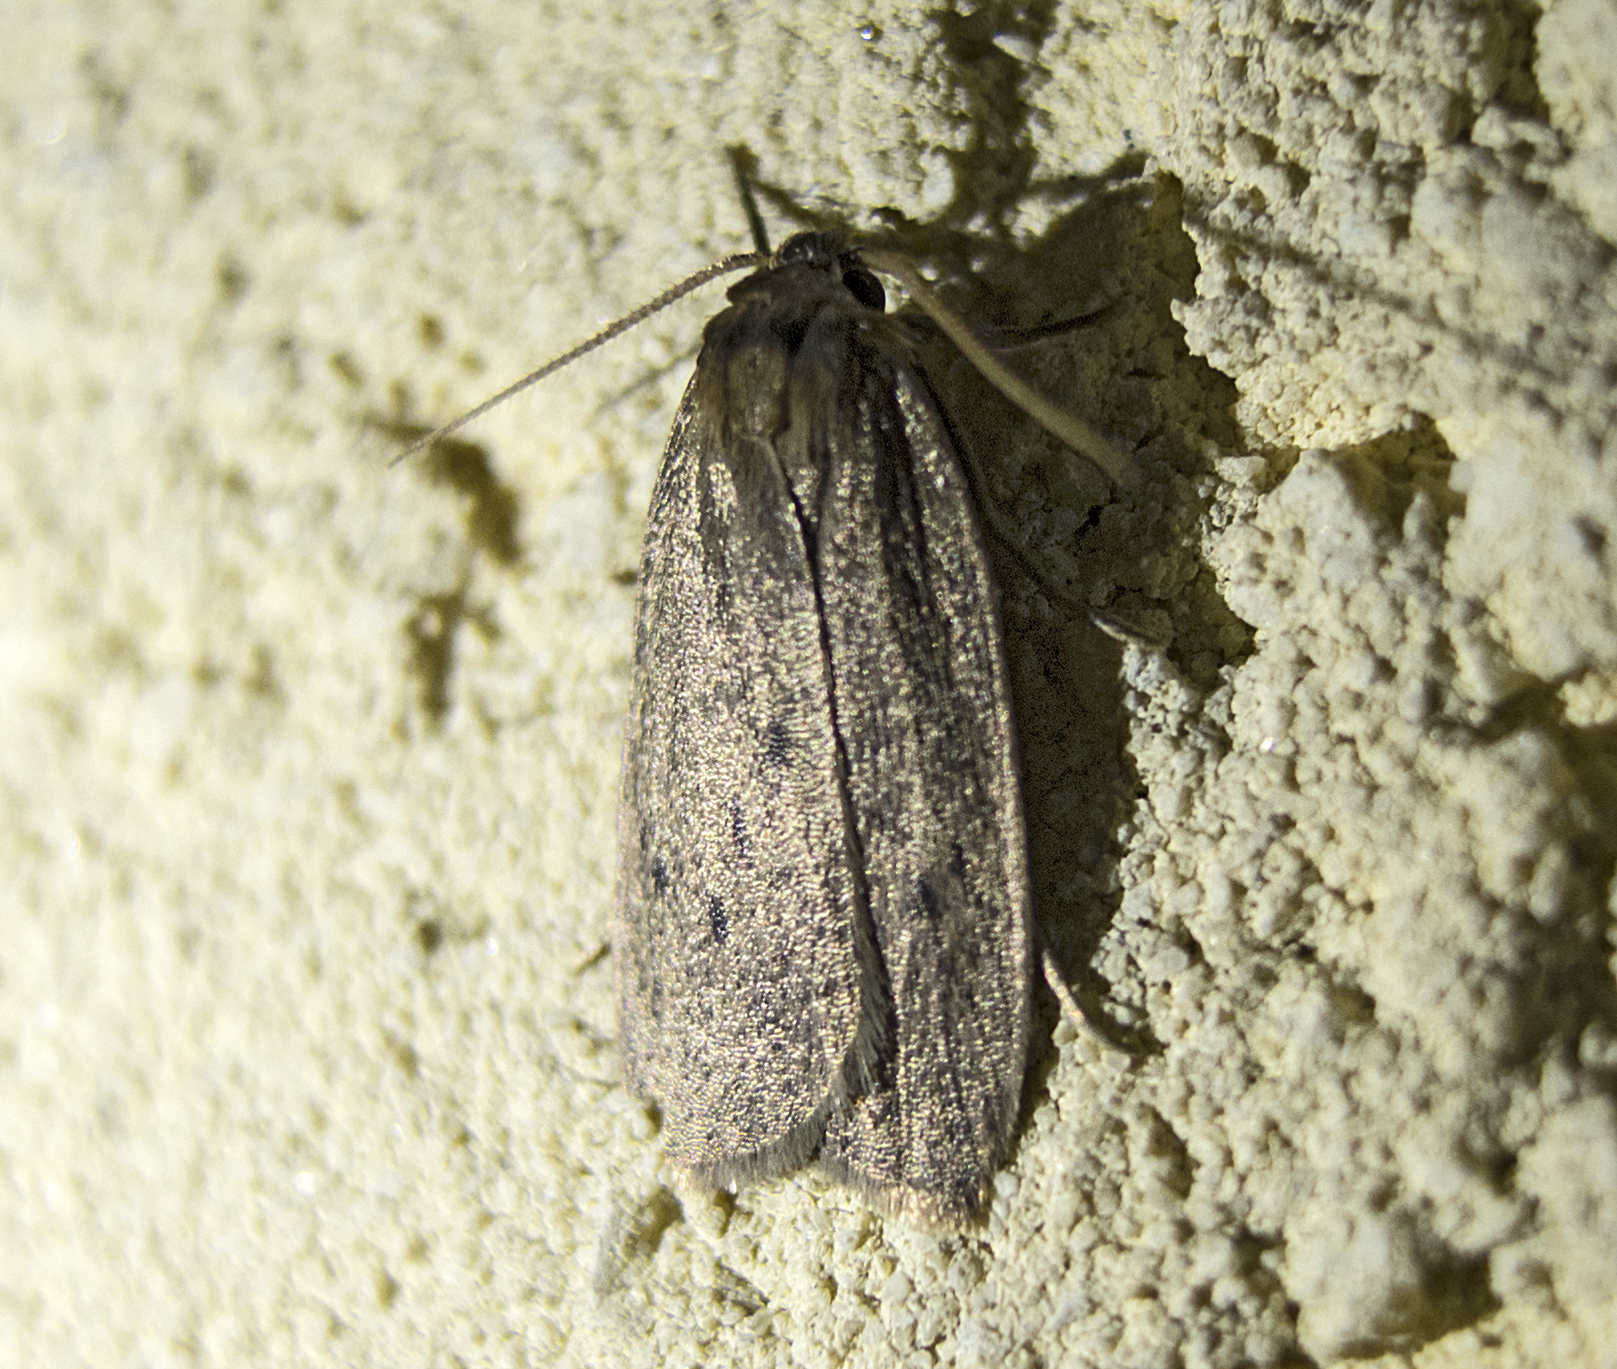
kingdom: Animalia
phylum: Arthropoda
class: Insecta
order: Lepidoptera
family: Erebidae
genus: Pelosia
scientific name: Pelosia obtusa
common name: Small dotted footman
